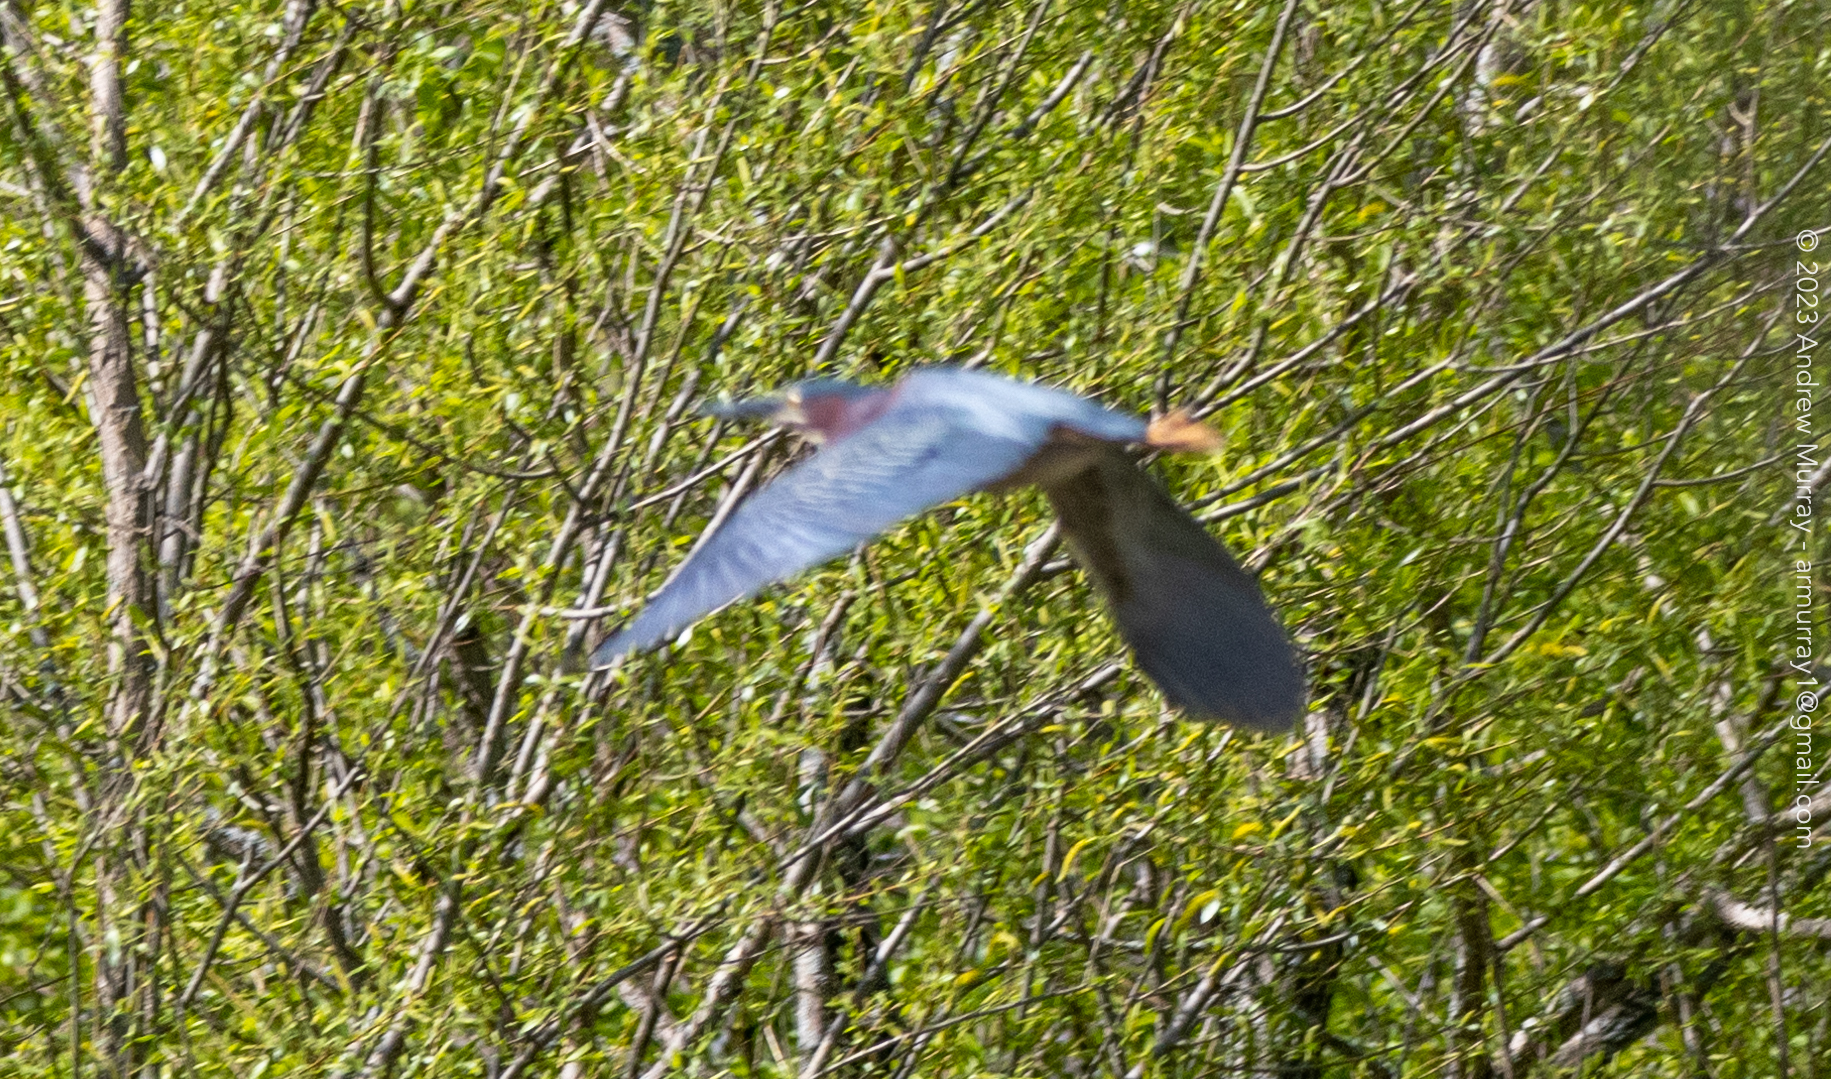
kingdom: Animalia
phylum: Chordata
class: Aves
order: Pelecaniformes
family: Ardeidae
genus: Butorides
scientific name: Butorides virescens
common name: Green heron
